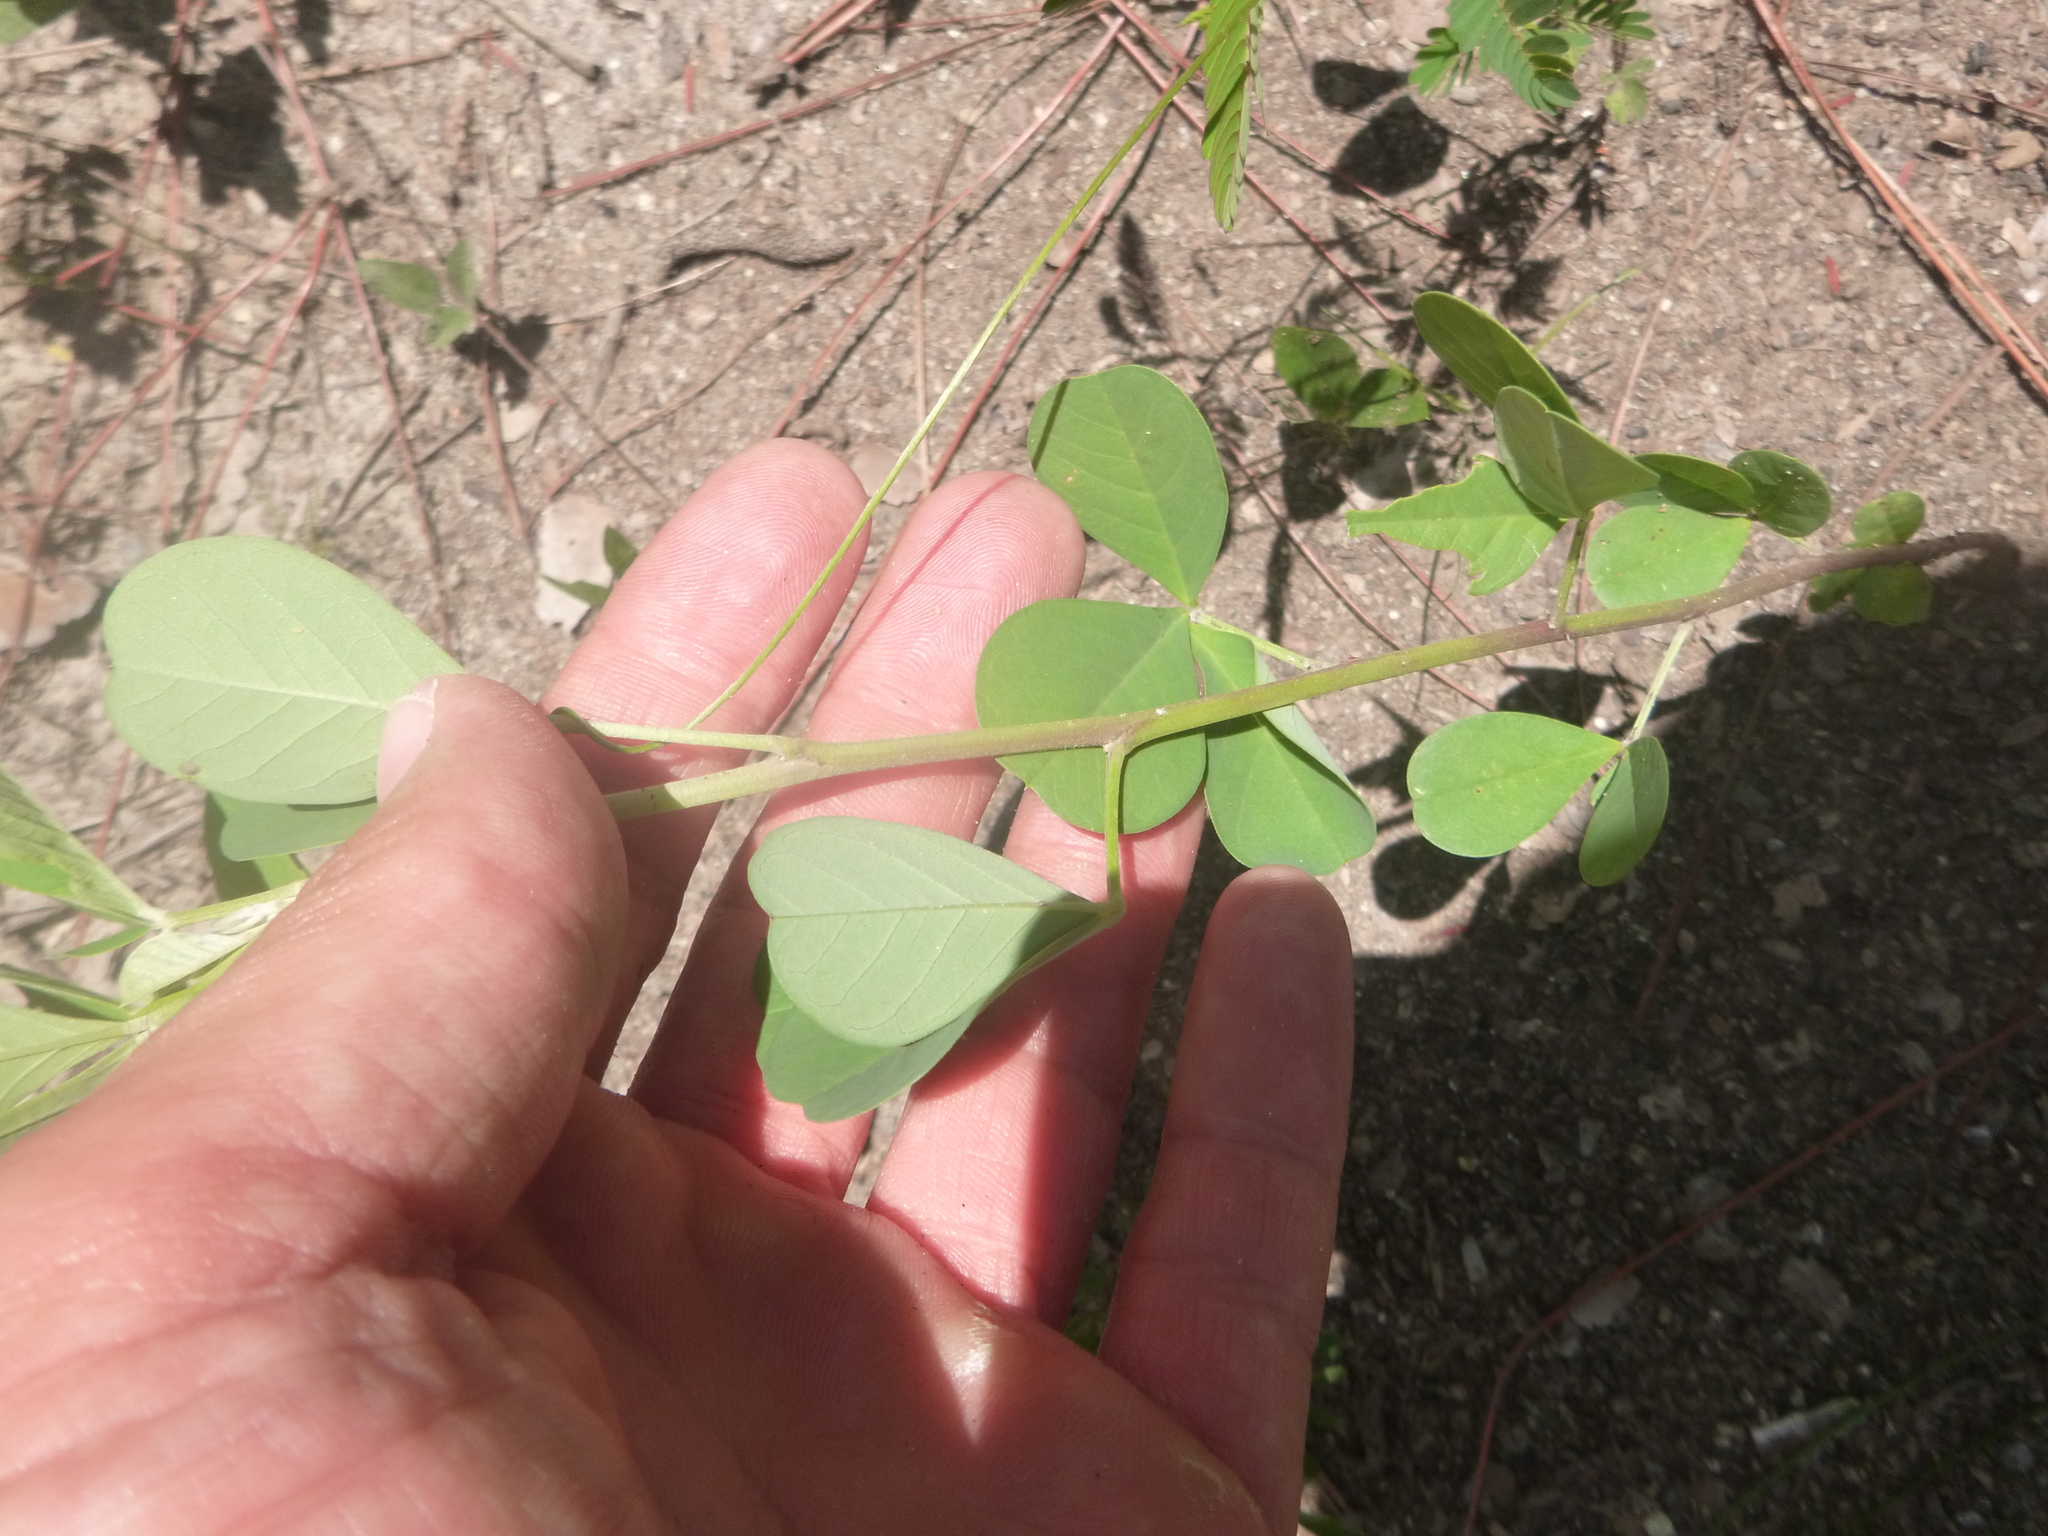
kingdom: Plantae
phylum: Tracheophyta
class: Magnoliopsida
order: Fabales
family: Fabaceae
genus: Crotalaria
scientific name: Crotalaria pallida
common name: Smooth rattlebox
